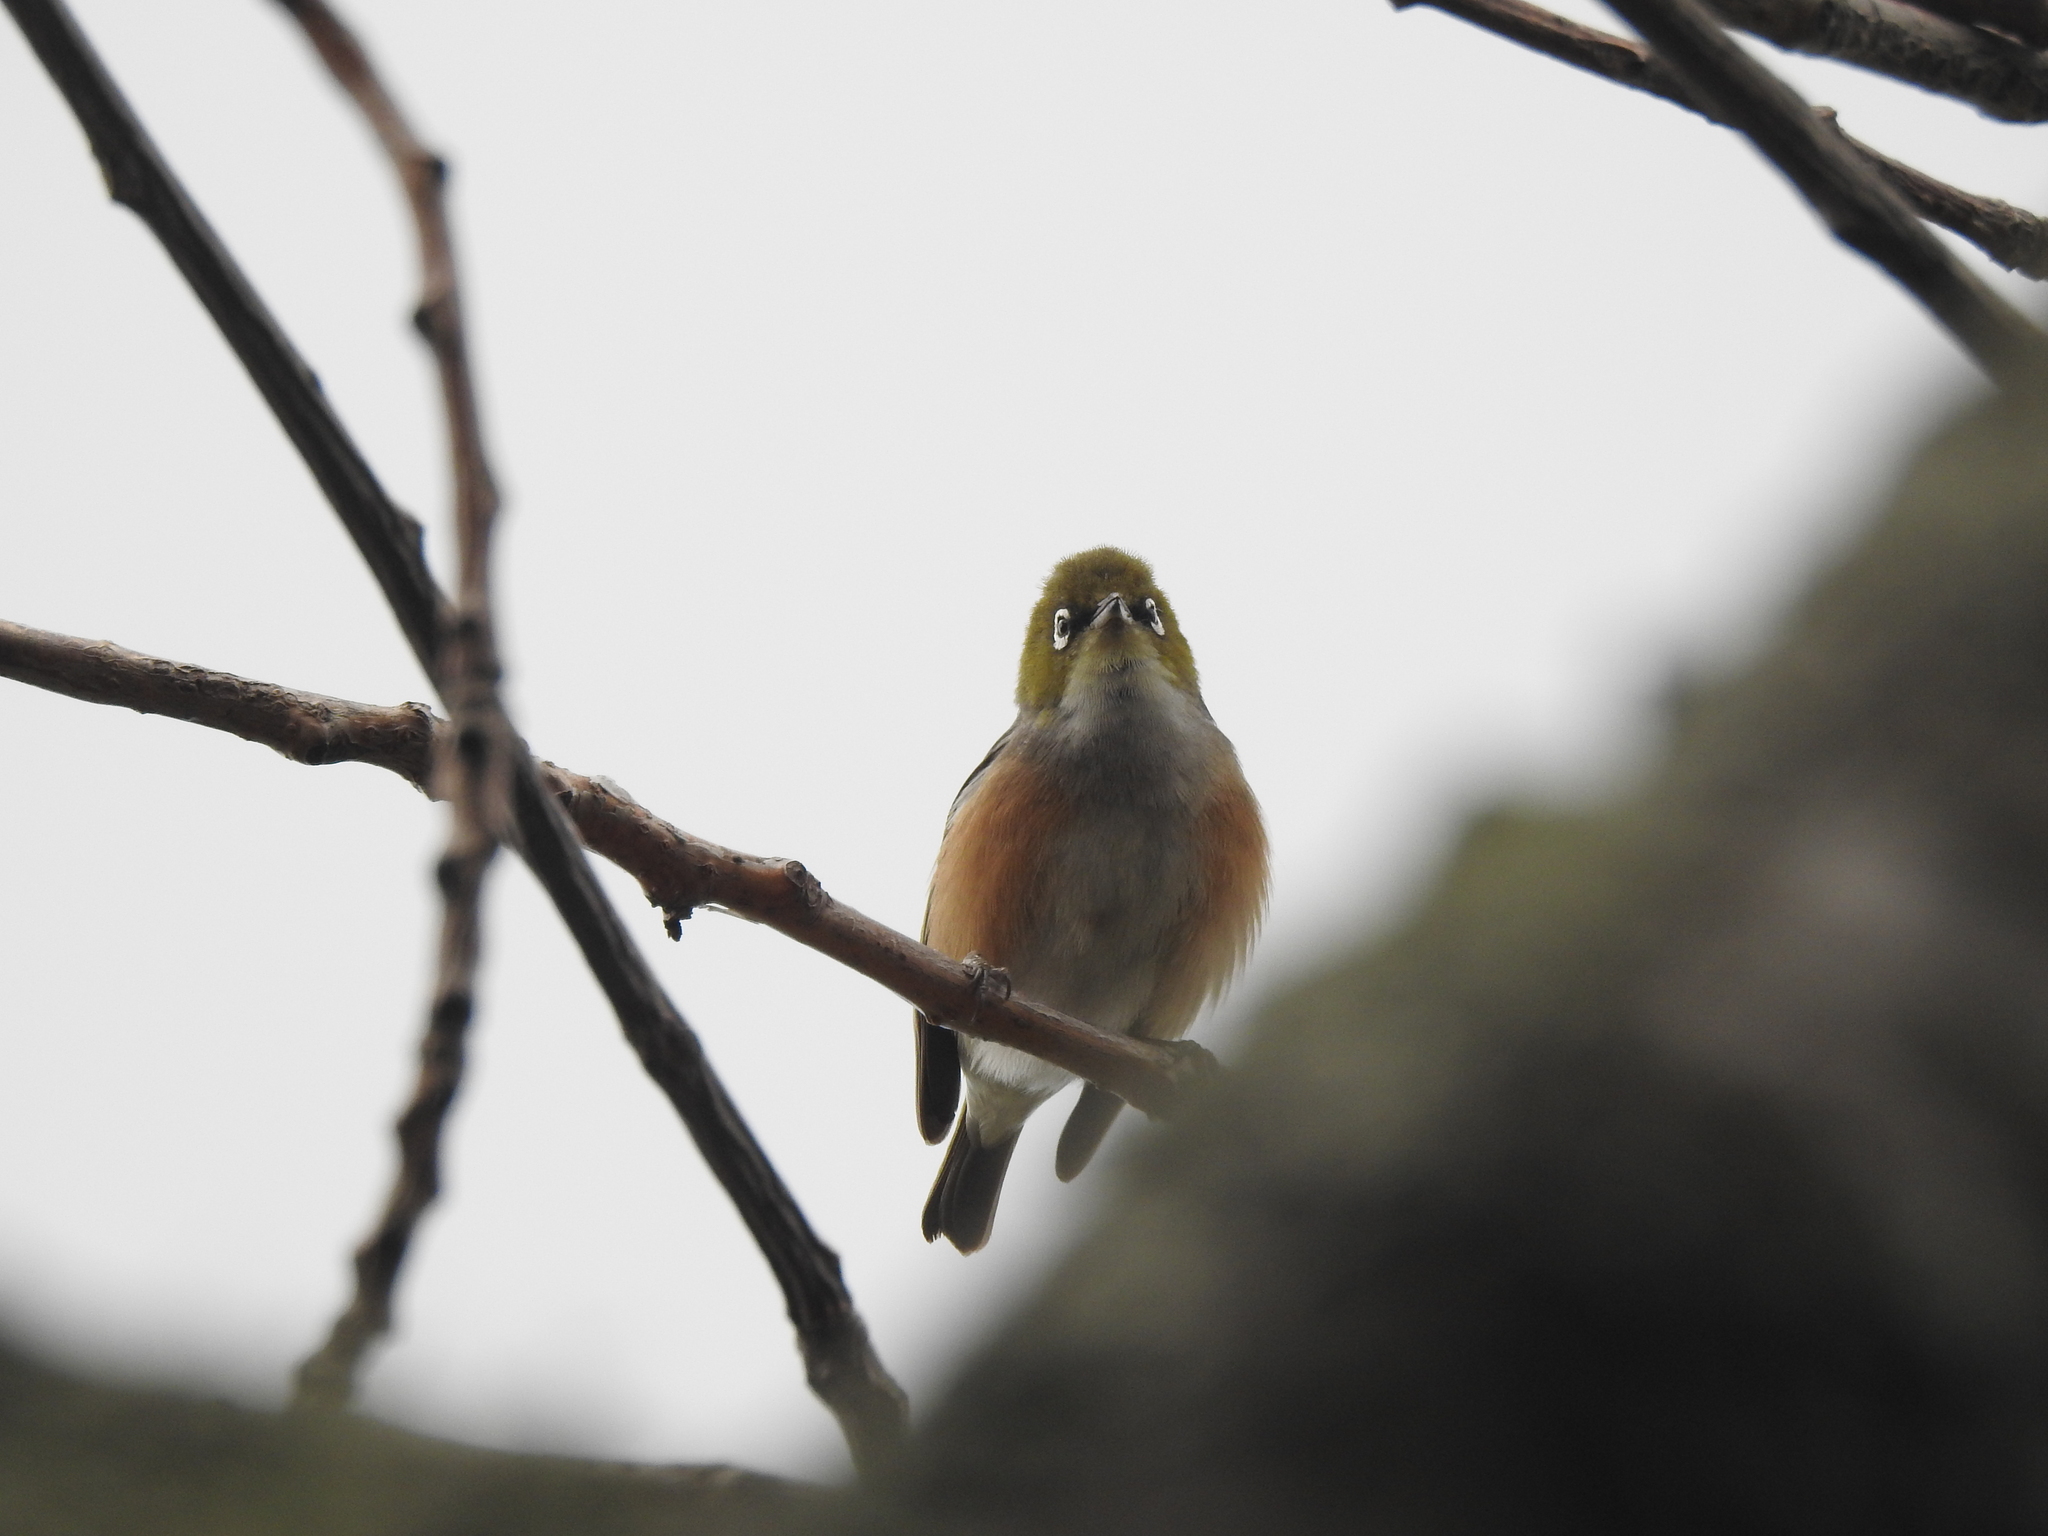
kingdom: Animalia
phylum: Chordata
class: Aves
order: Passeriformes
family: Zosteropidae
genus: Zosterops
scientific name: Zosterops lateralis
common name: Silvereye
